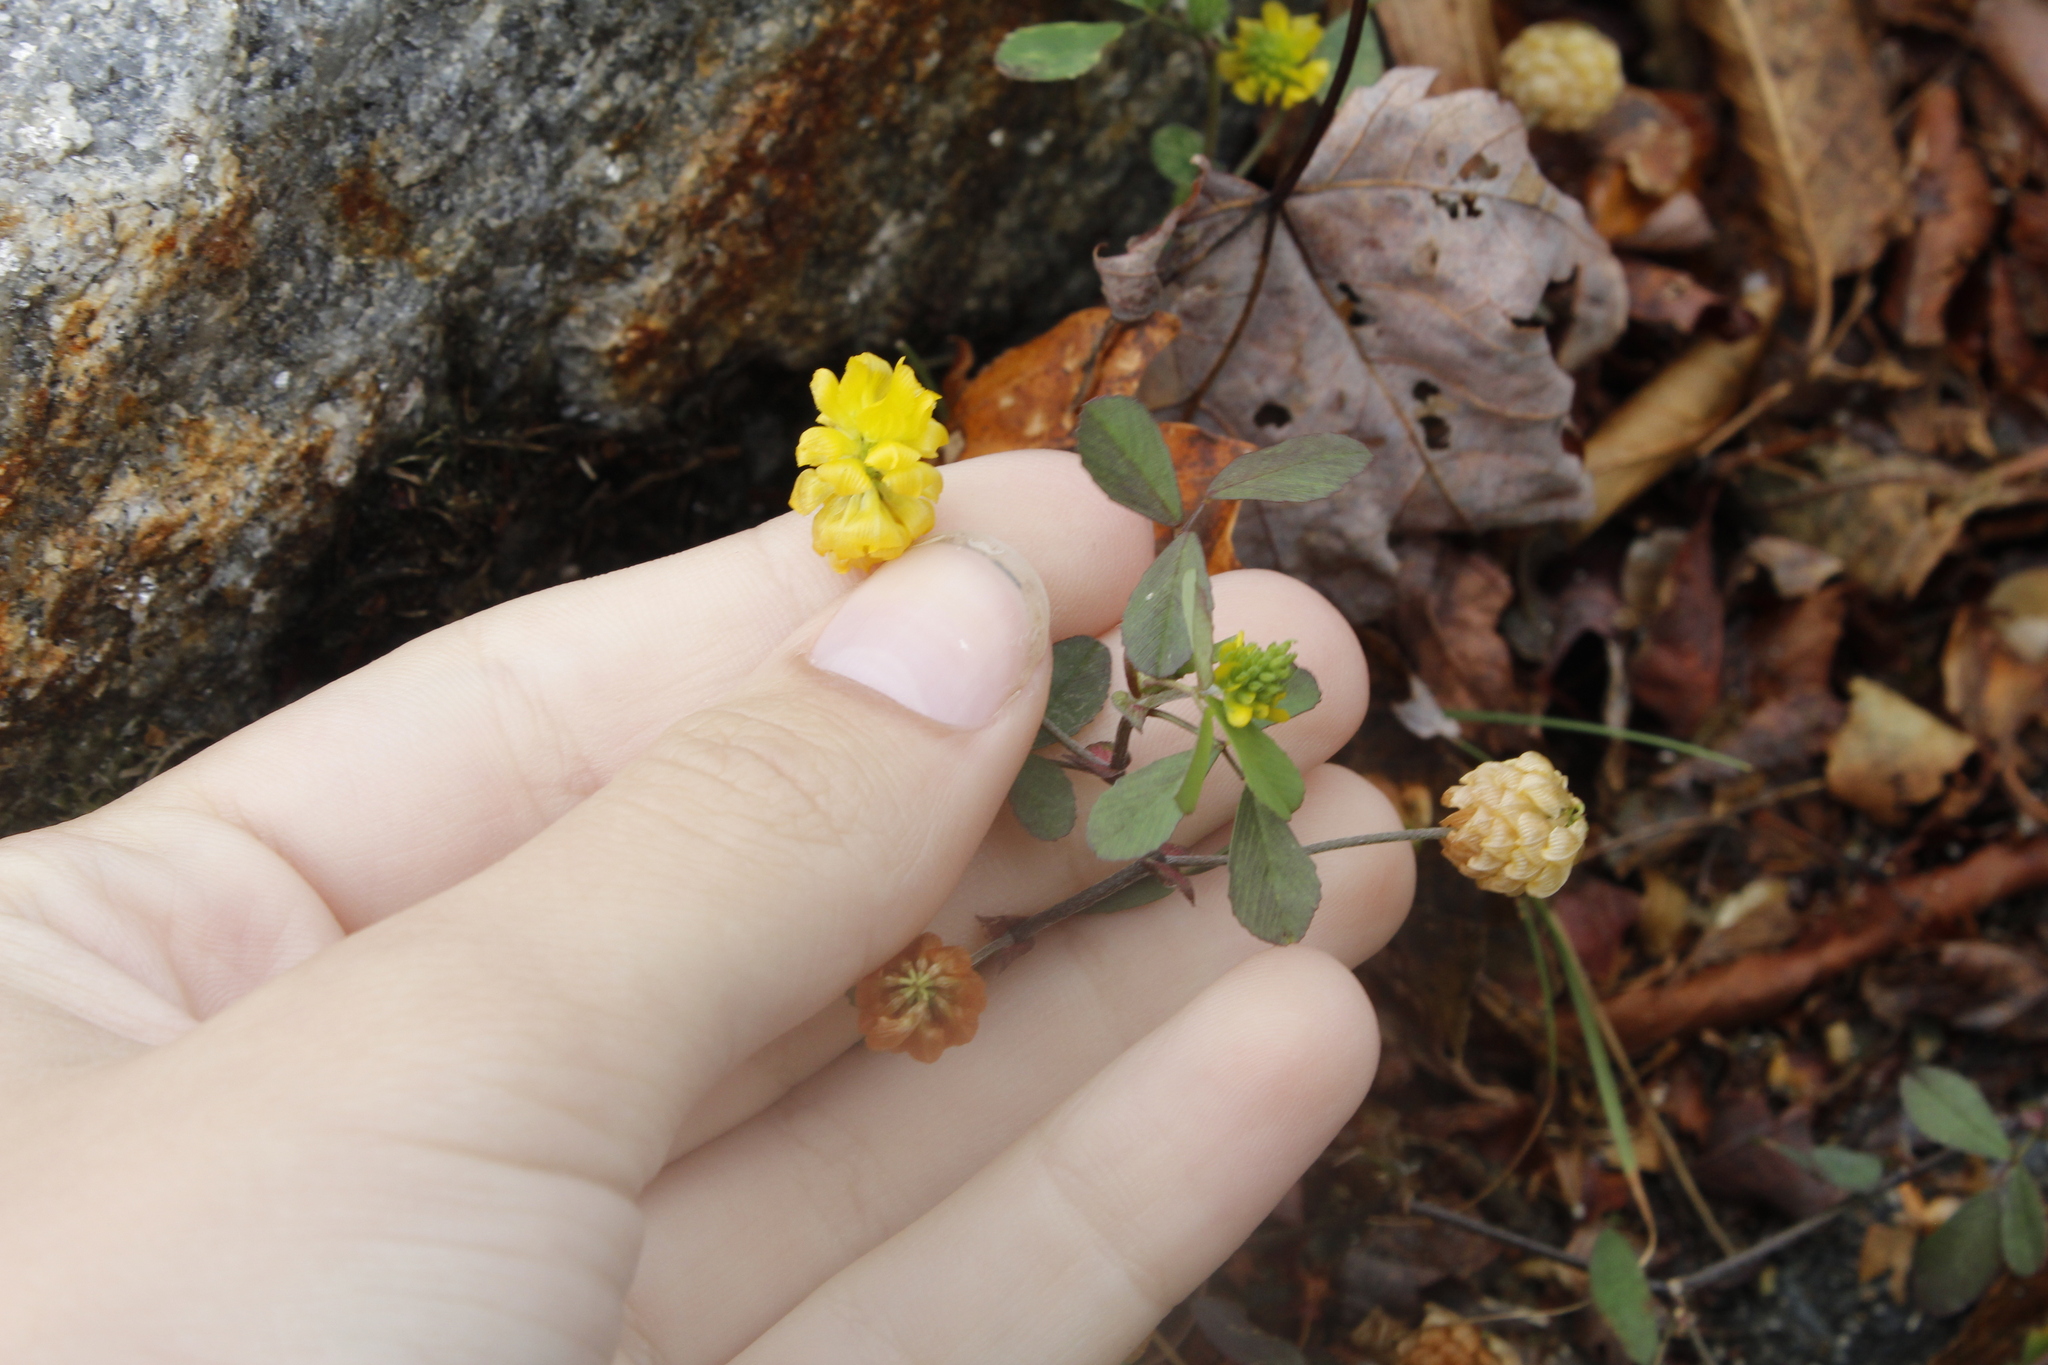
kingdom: Plantae
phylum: Tracheophyta
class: Magnoliopsida
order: Fabales
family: Fabaceae
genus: Trifolium
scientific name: Trifolium campestre
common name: Field clover
